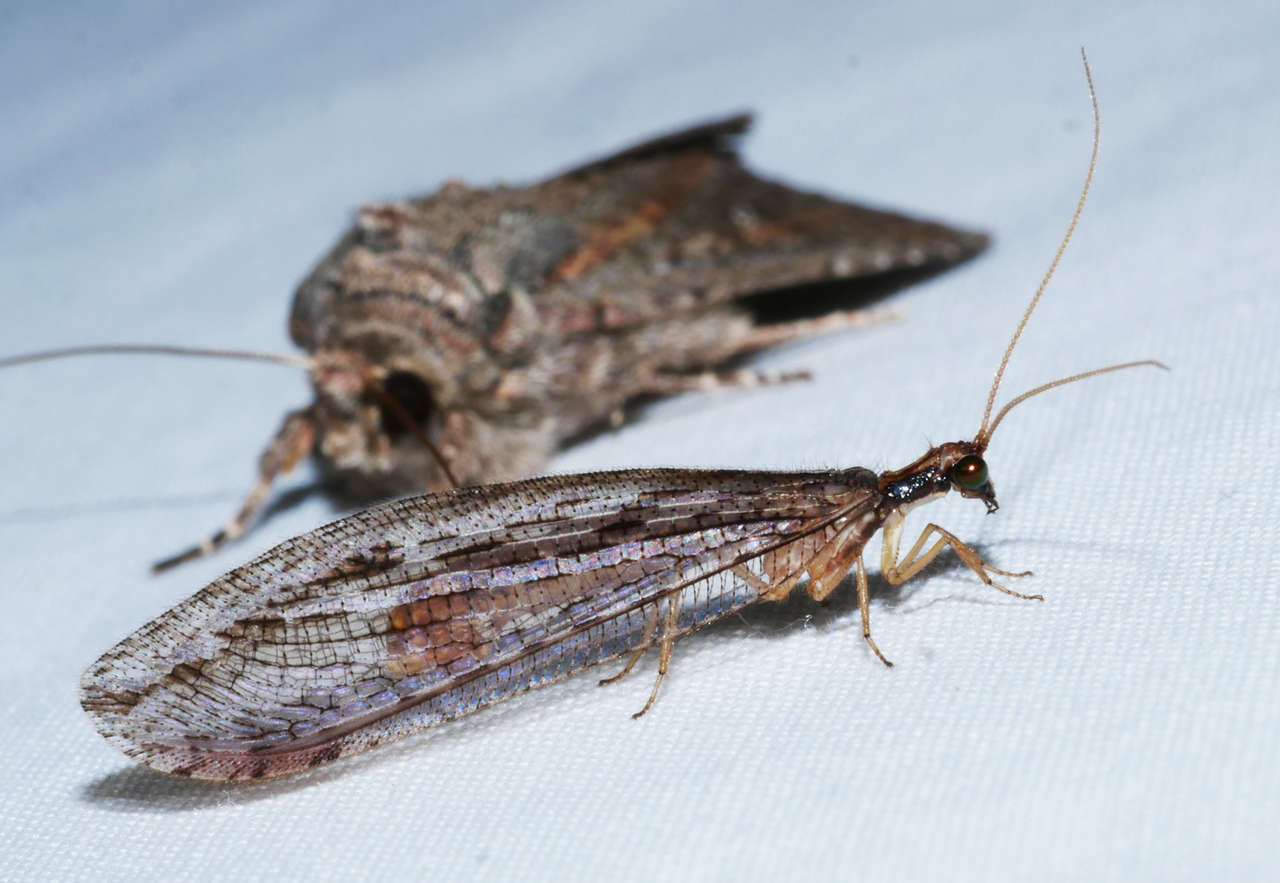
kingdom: Animalia
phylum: Arthropoda
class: Insecta
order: Neuroptera
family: Osmylidae
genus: Stenosmylus
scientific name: Stenosmylus stenopterus
